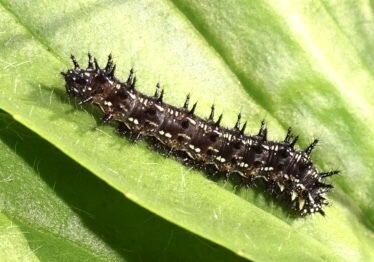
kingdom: Animalia
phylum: Arthropoda
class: Insecta
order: Lepidoptera
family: Nymphalidae
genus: Junonia
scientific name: Junonia coenia
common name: Common buckeye
